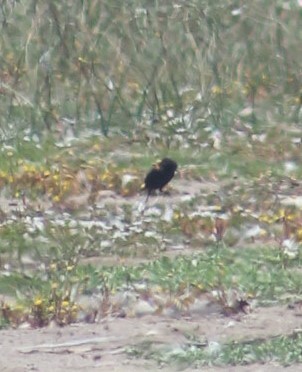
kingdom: Animalia
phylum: Chordata
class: Aves
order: Passeriformes
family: Tyrannidae
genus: Lessonia
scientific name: Lessonia rufa
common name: Austral negrito
